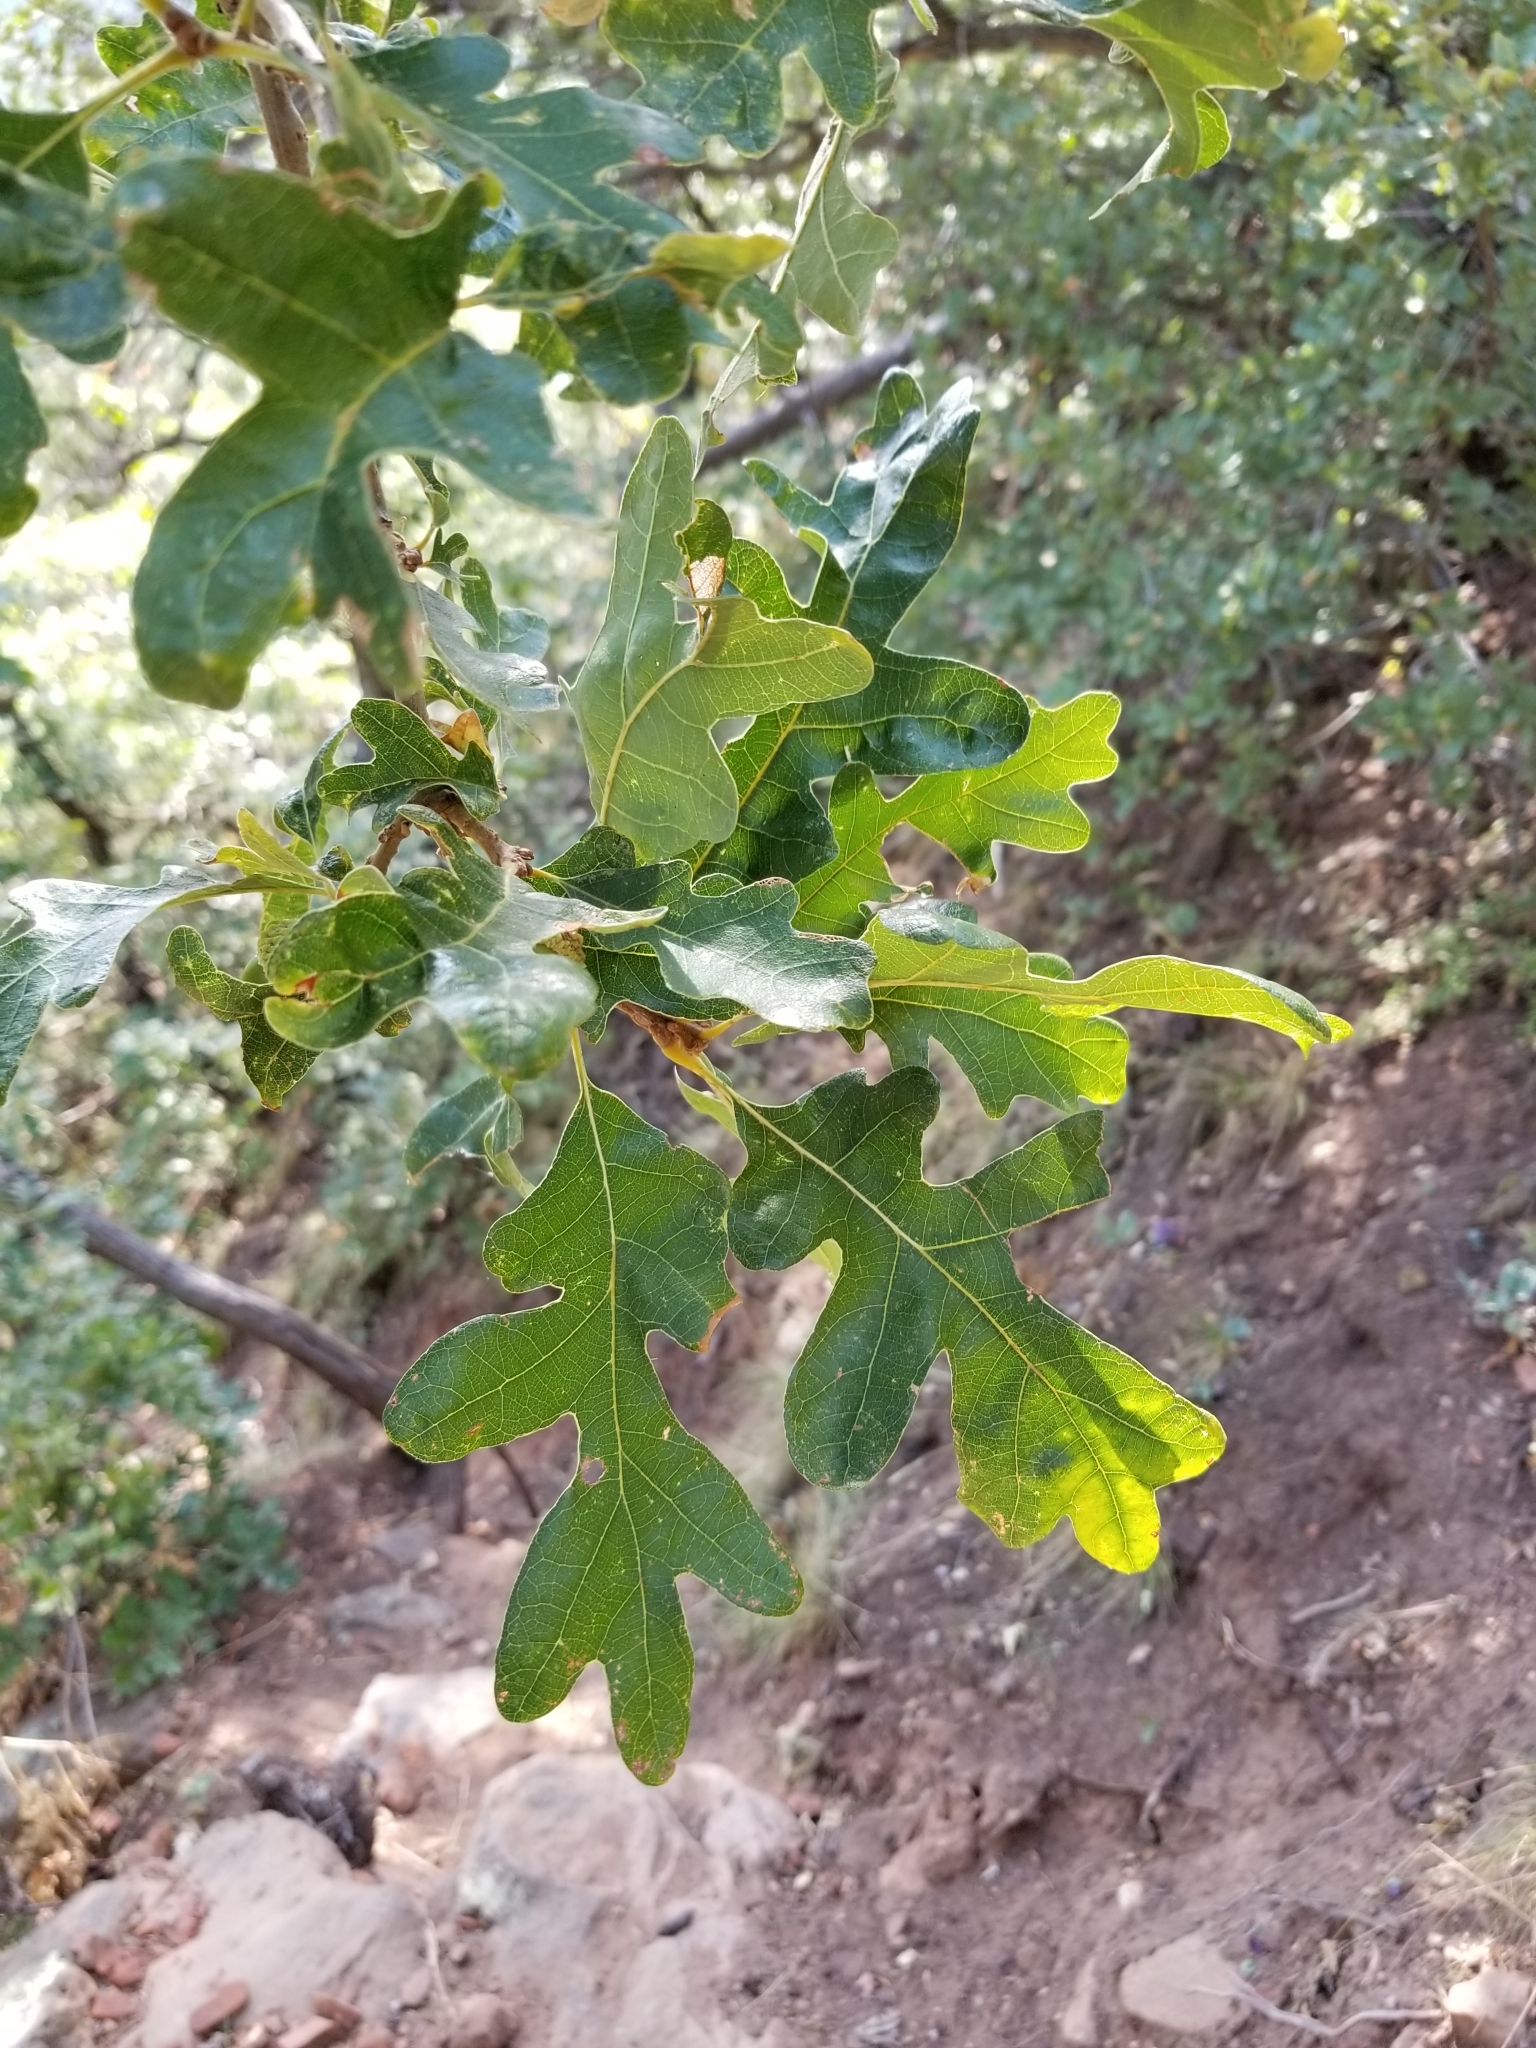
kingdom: Plantae
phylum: Tracheophyta
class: Magnoliopsida
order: Fagales
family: Fagaceae
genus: Quercus
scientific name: Quercus gambelii
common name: Gambel oak
